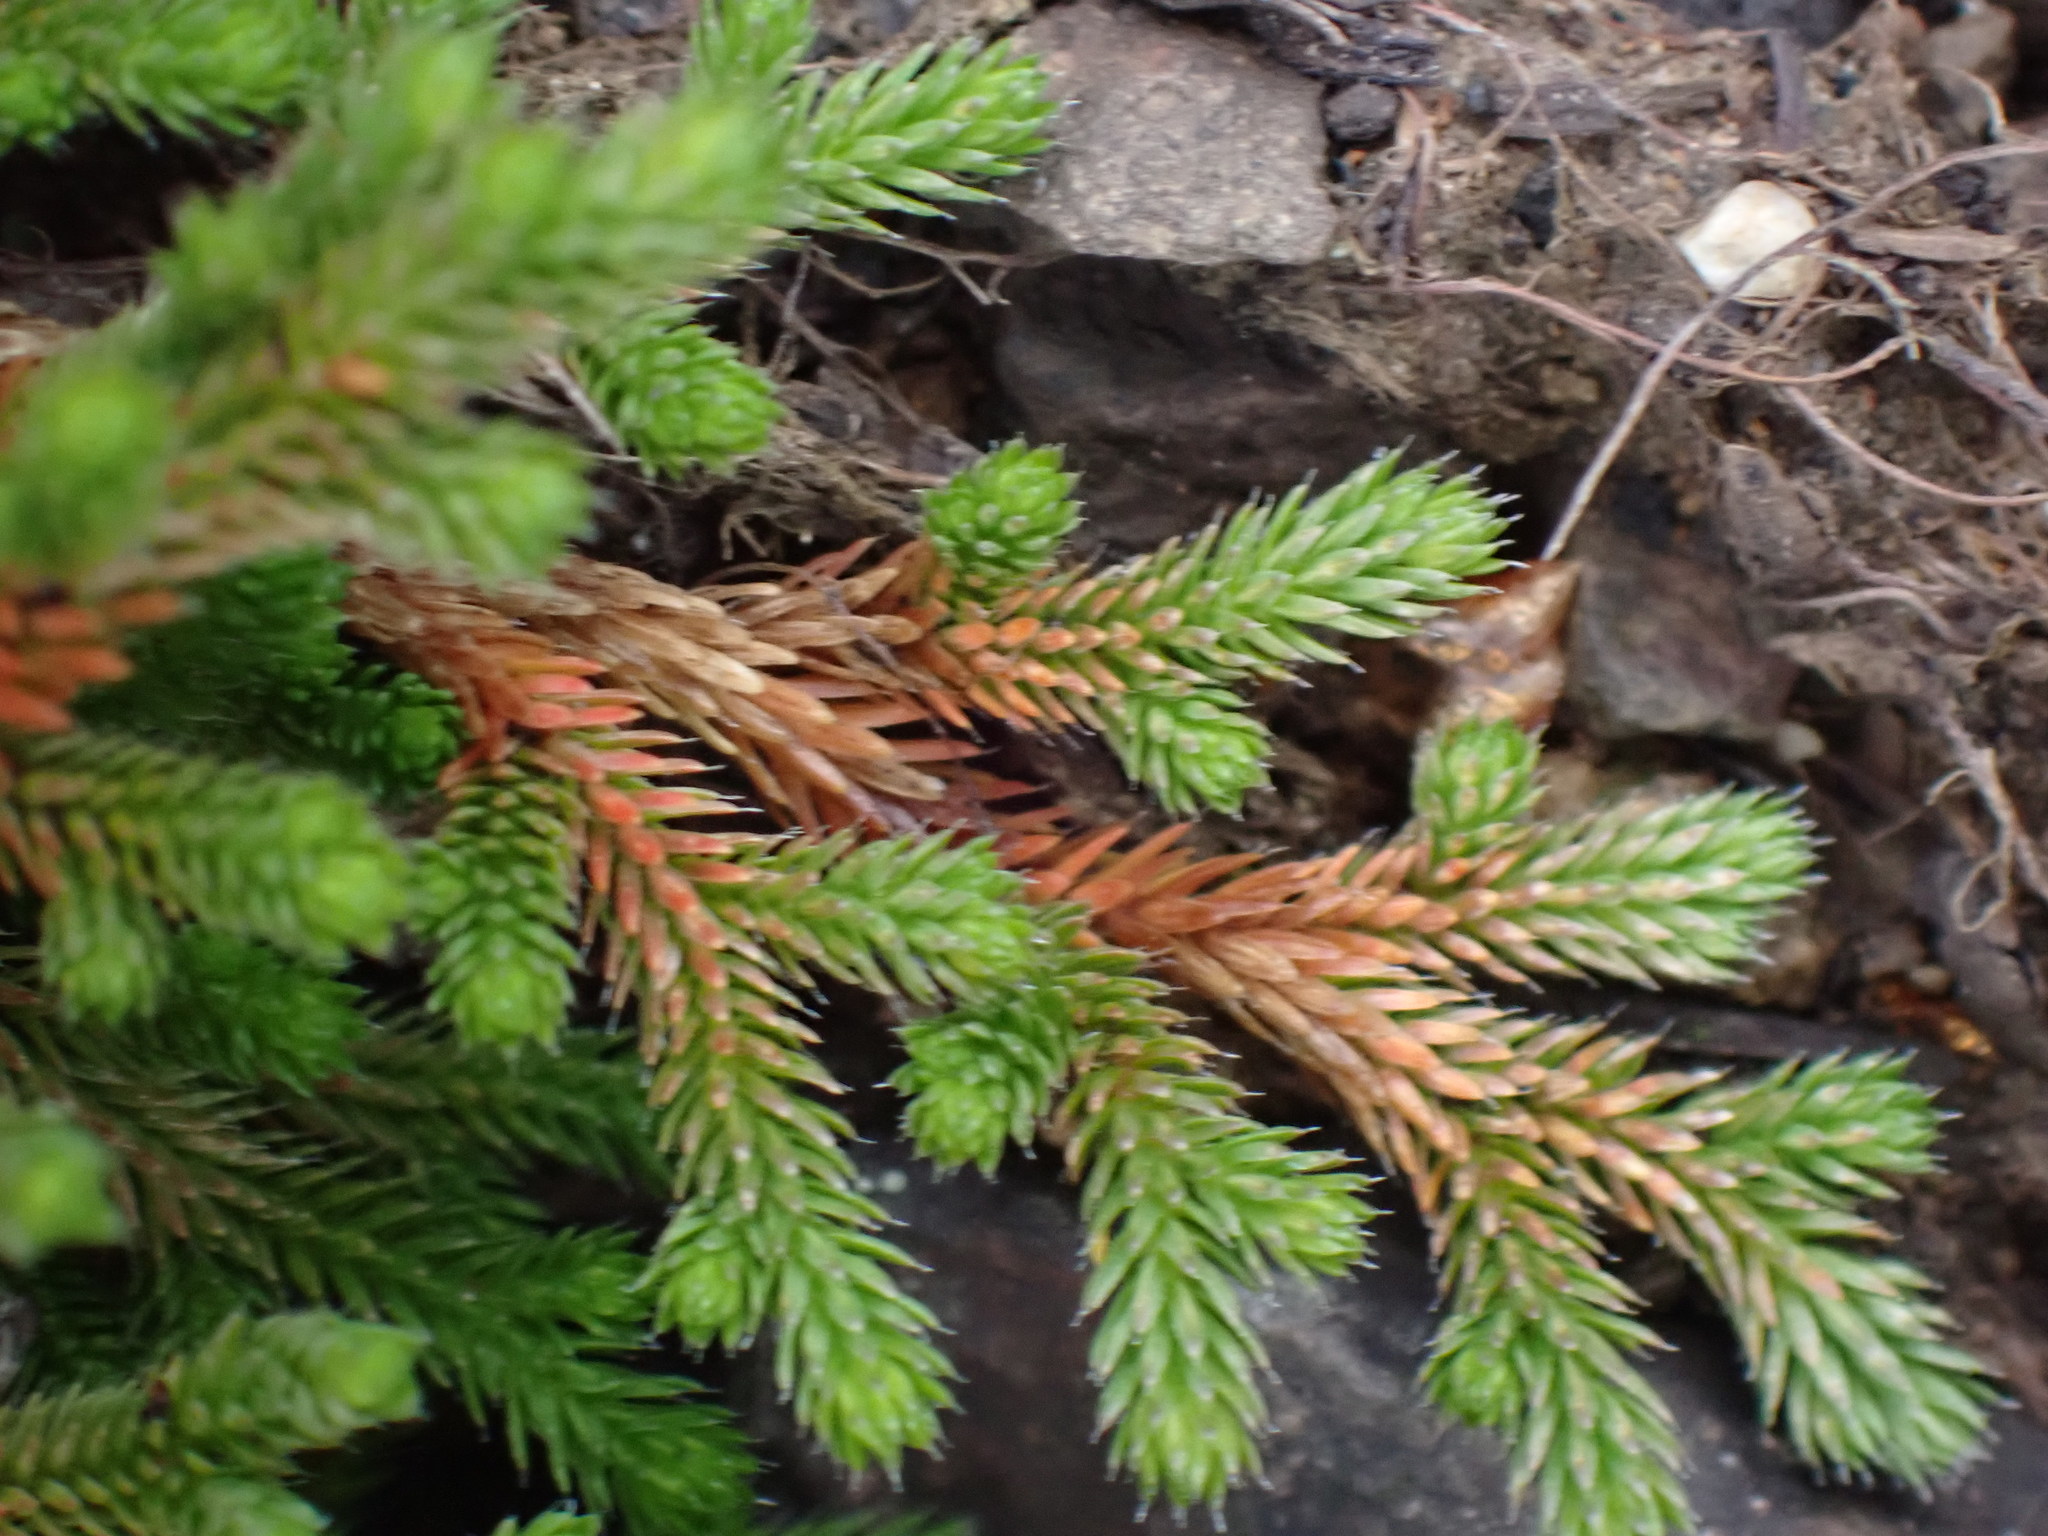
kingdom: Plantae
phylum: Tracheophyta
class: Lycopodiopsida
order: Selaginellales
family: Selaginellaceae
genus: Selaginella
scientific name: Selaginella wallacei
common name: Wallace's selaginella
